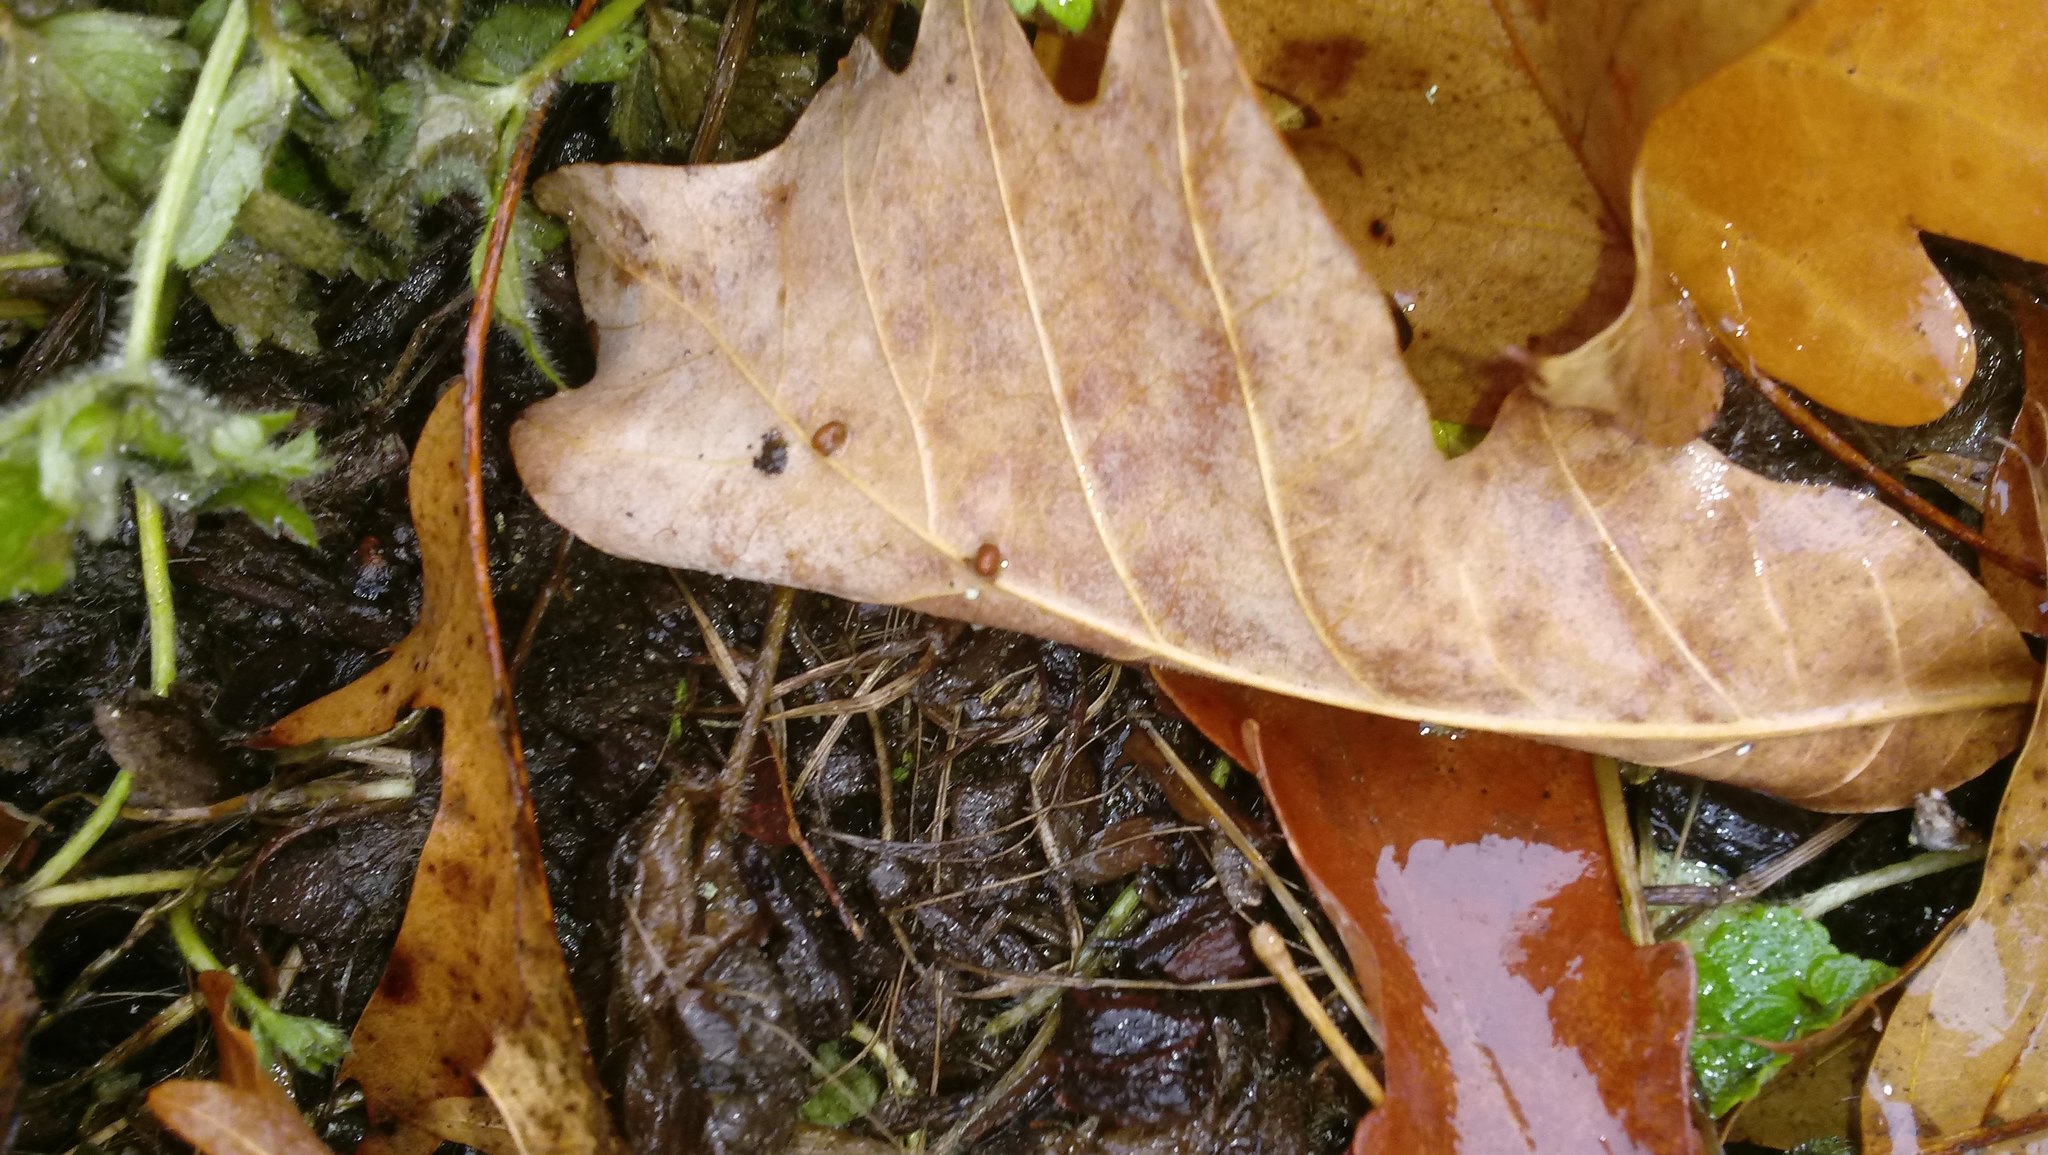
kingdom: Animalia
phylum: Arthropoda
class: Insecta
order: Hymenoptera
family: Cynipidae
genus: Andricus
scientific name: Andricus Druon ignotum
